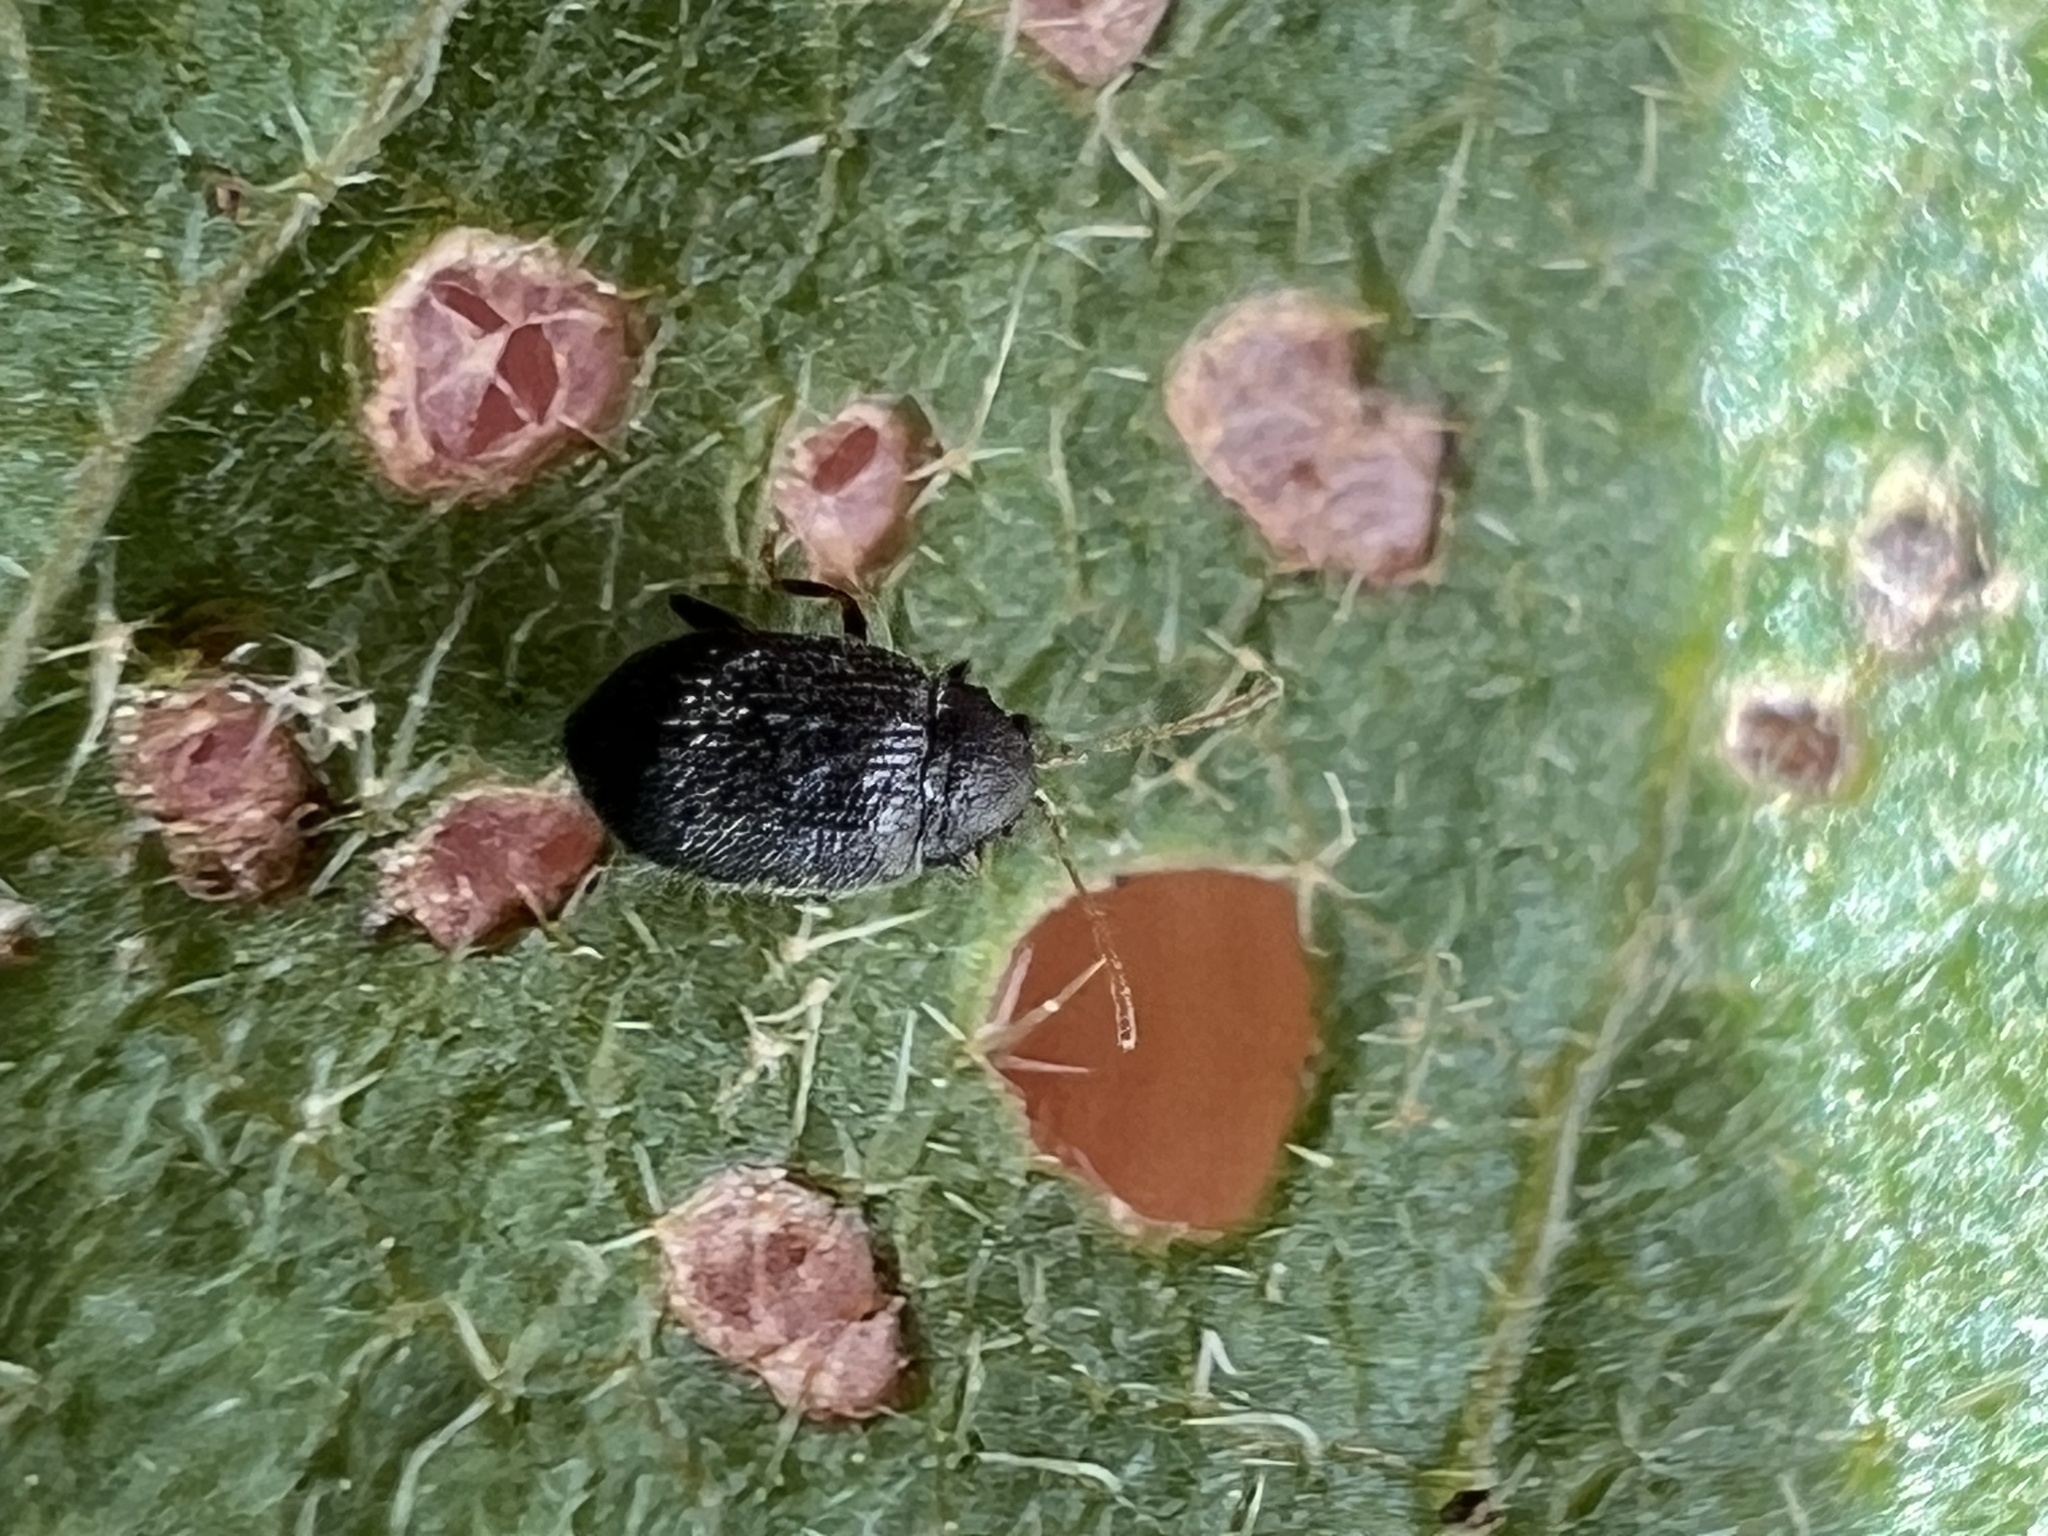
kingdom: Animalia
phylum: Arthropoda
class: Insecta
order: Coleoptera
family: Chrysomelidae
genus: Epitrix
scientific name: Epitrix fuscula
